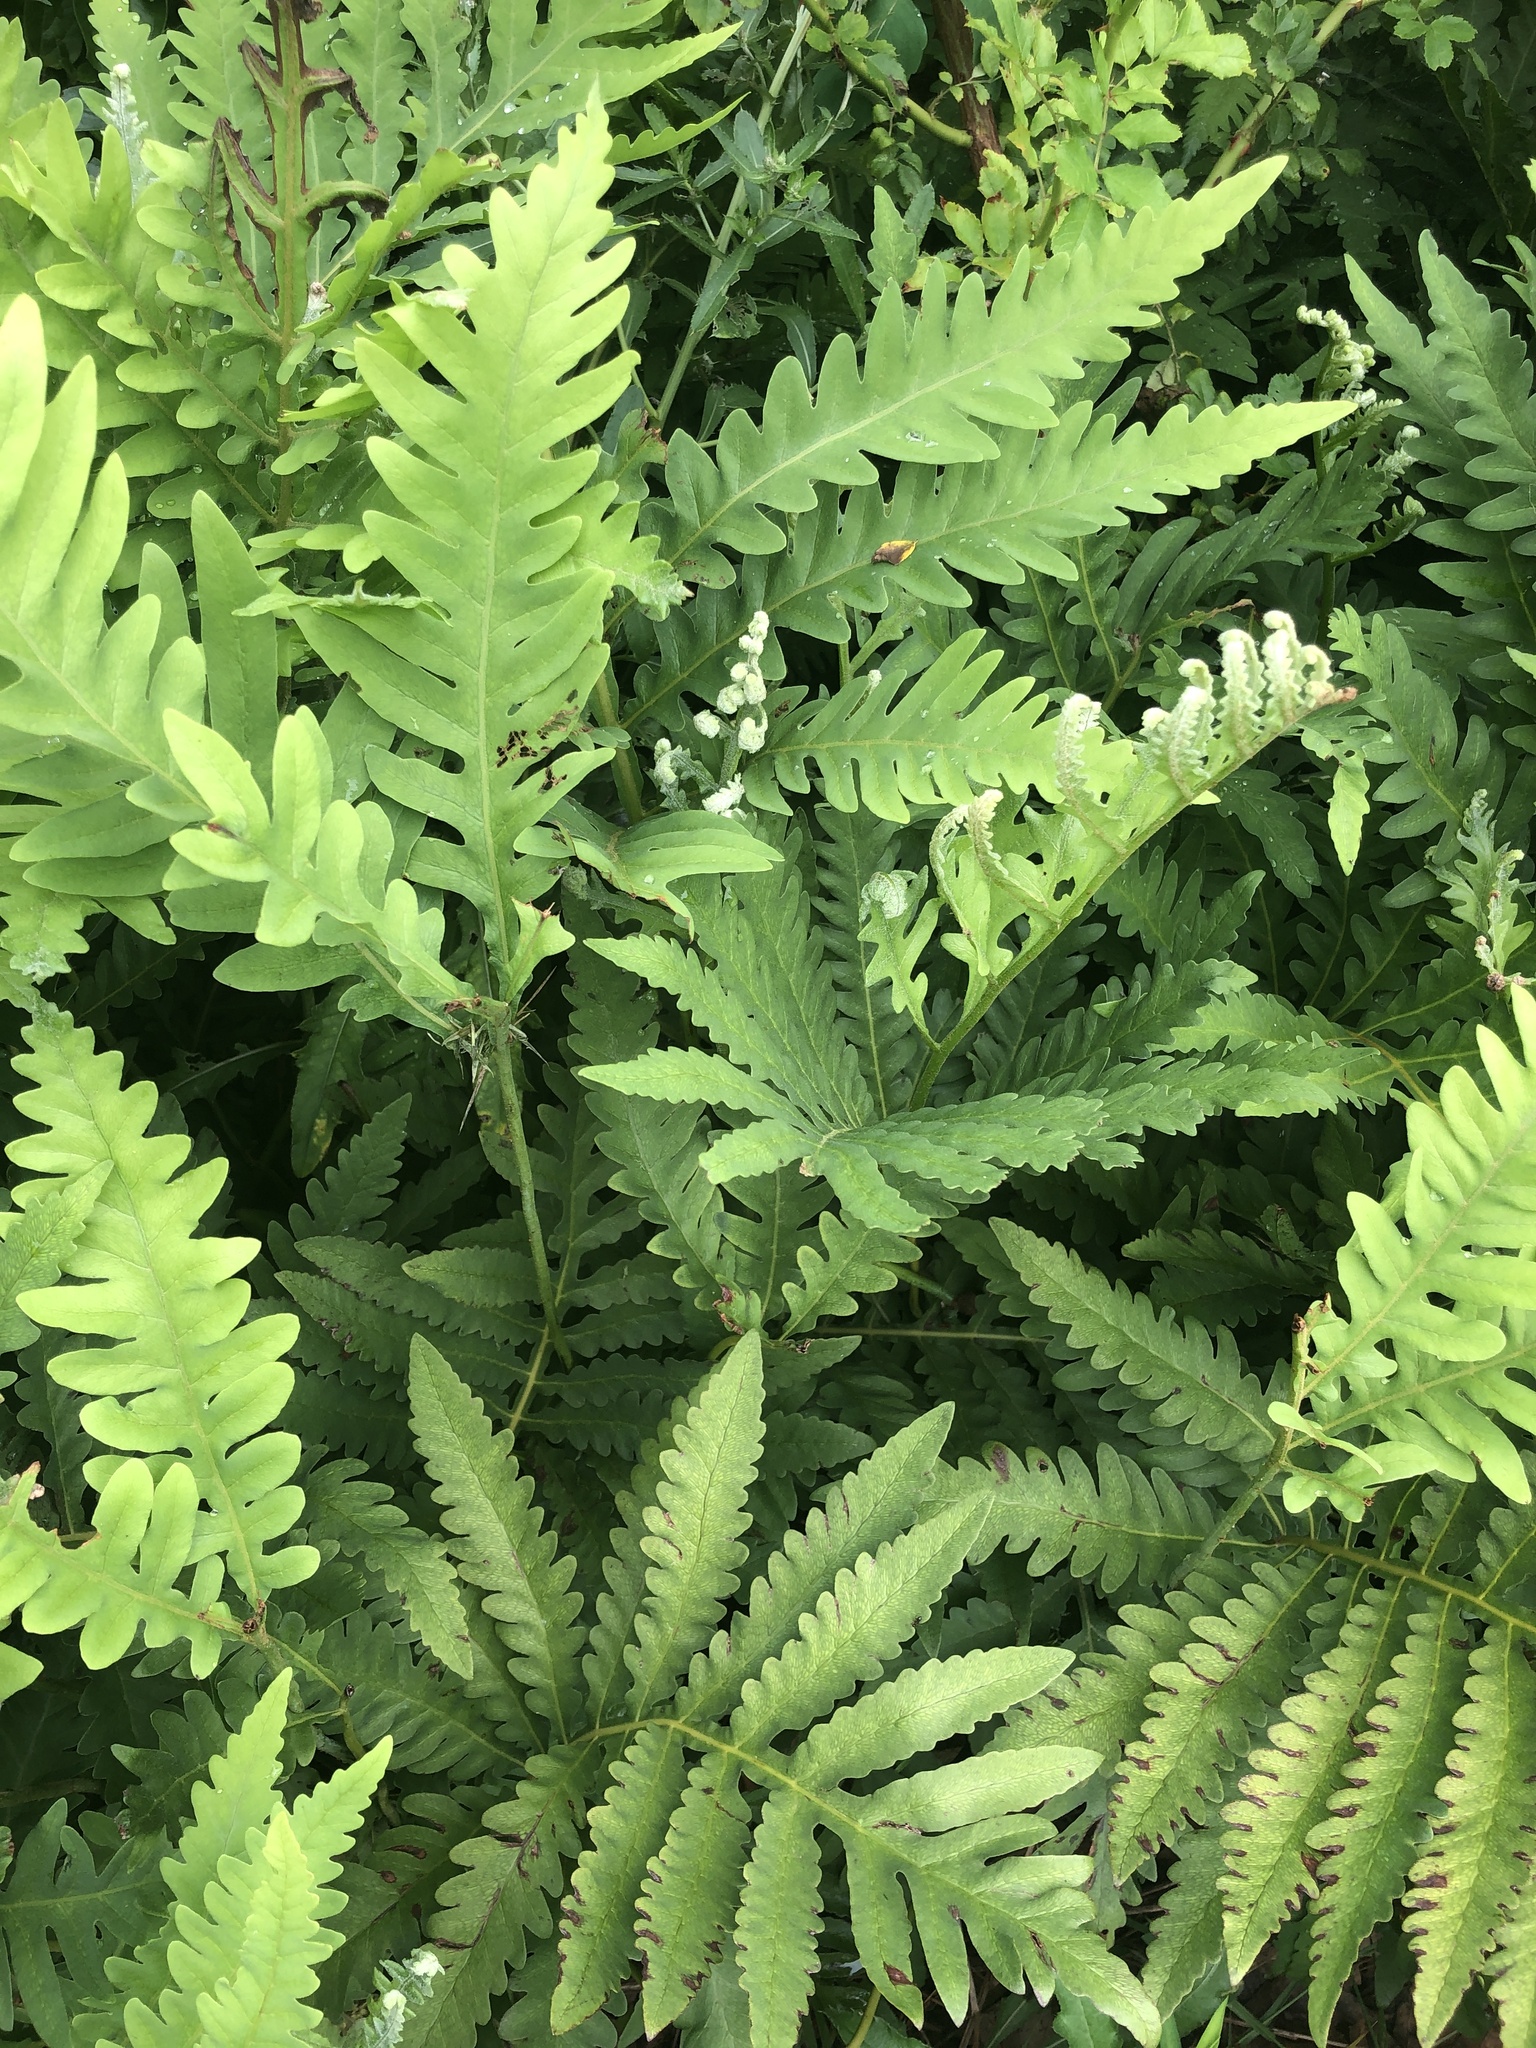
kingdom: Plantae
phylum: Tracheophyta
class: Polypodiopsida
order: Polypodiales
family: Onocleaceae
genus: Onoclea
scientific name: Onoclea sensibilis
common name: Sensitive fern
